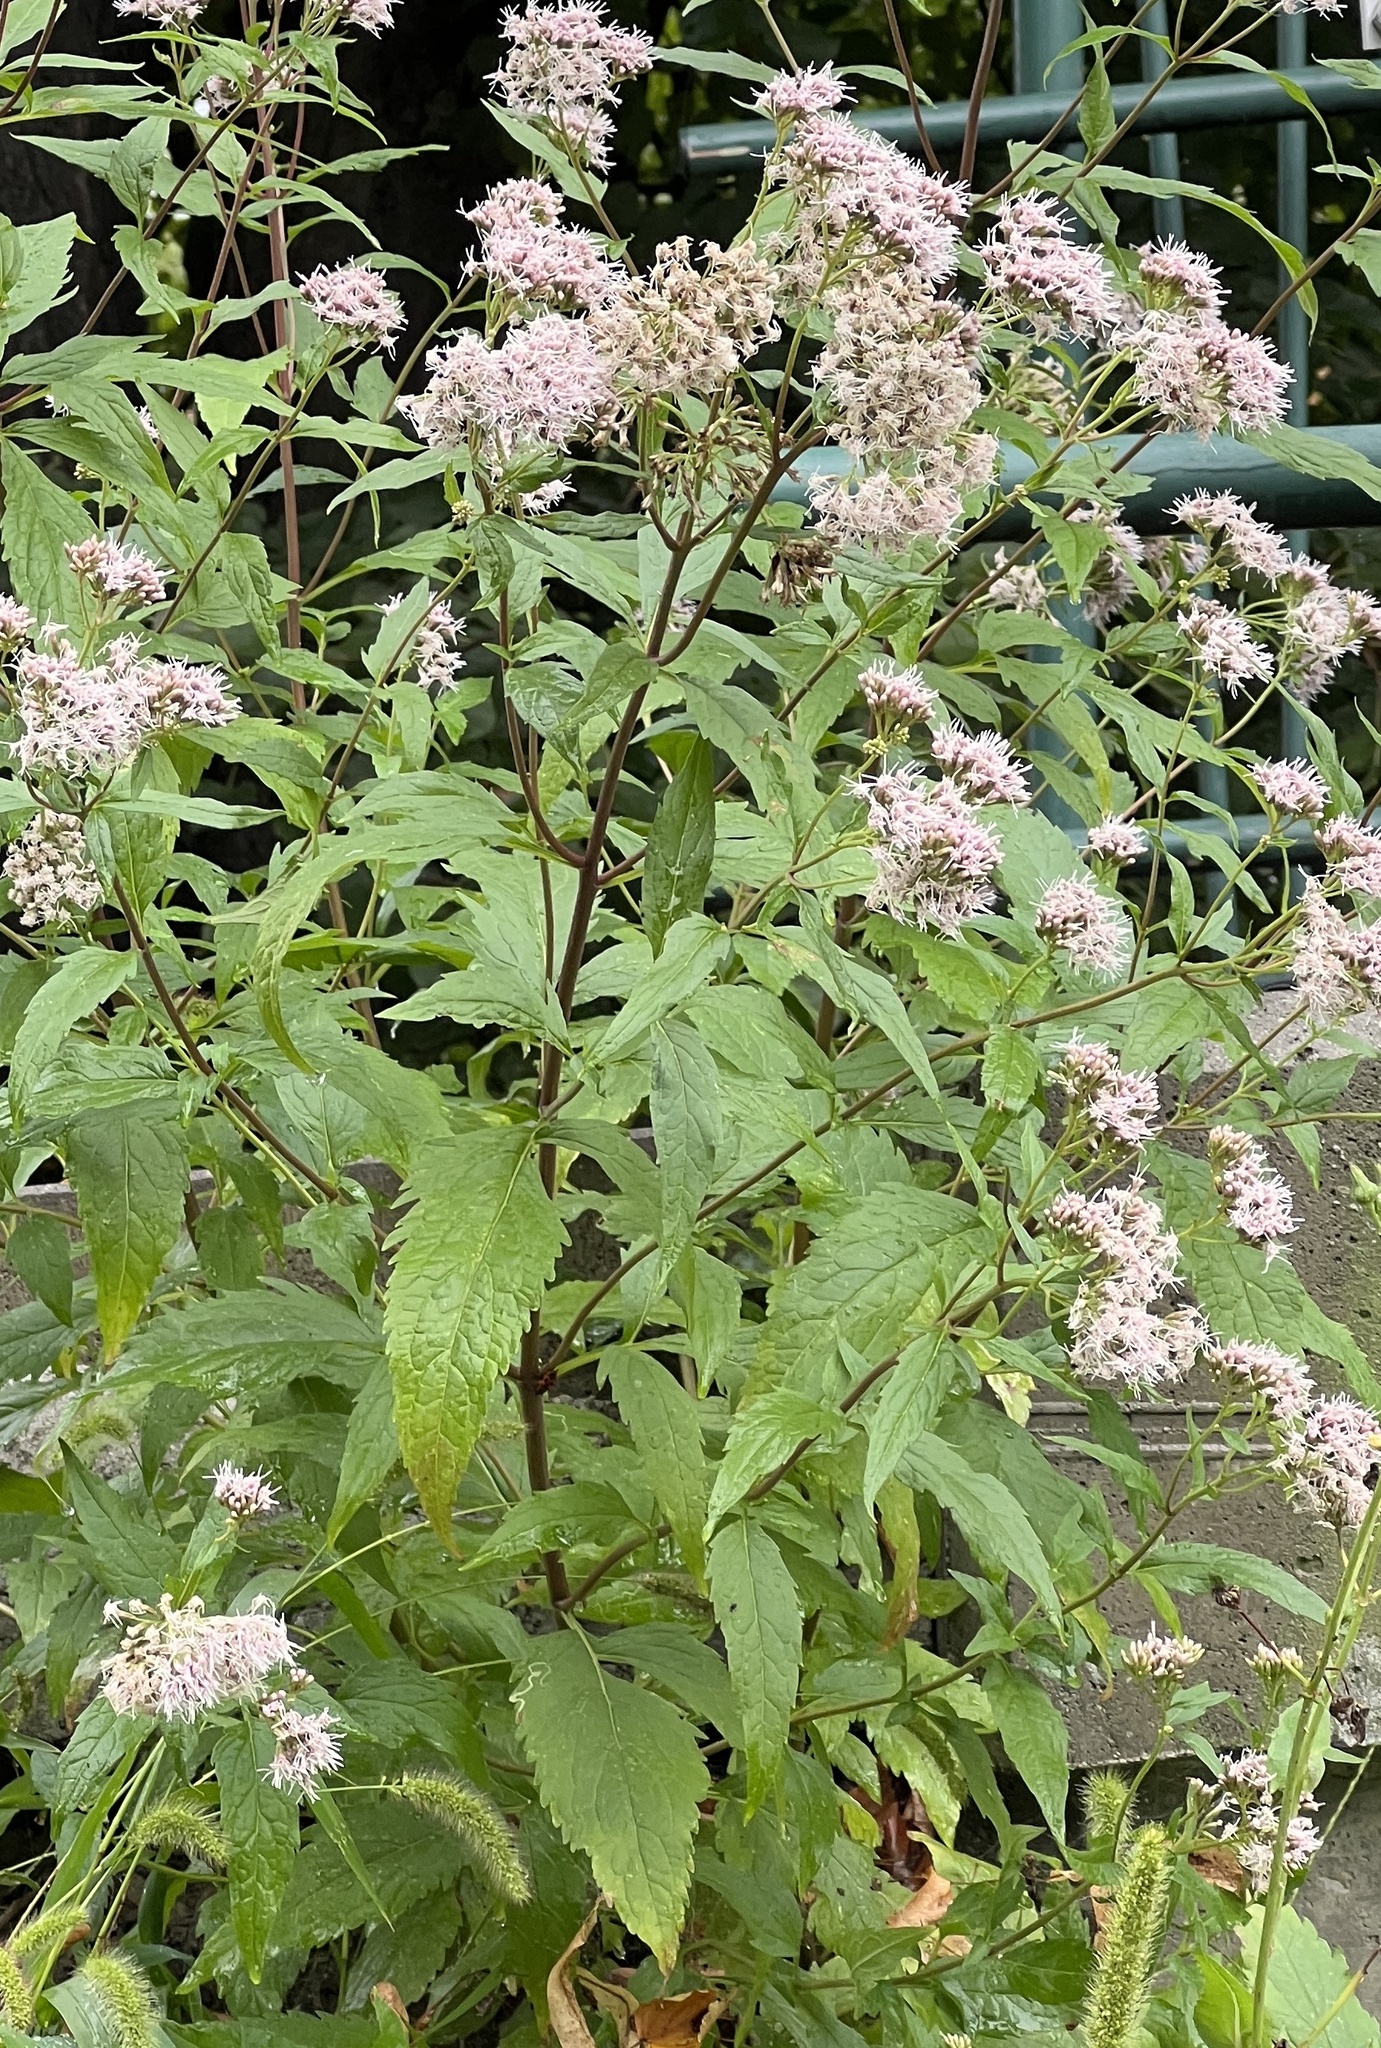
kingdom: Plantae
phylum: Tracheophyta
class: Magnoliopsida
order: Asterales
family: Asteraceae
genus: Eupatorium
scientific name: Eupatorium cannabinum
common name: Hemp-agrimony
